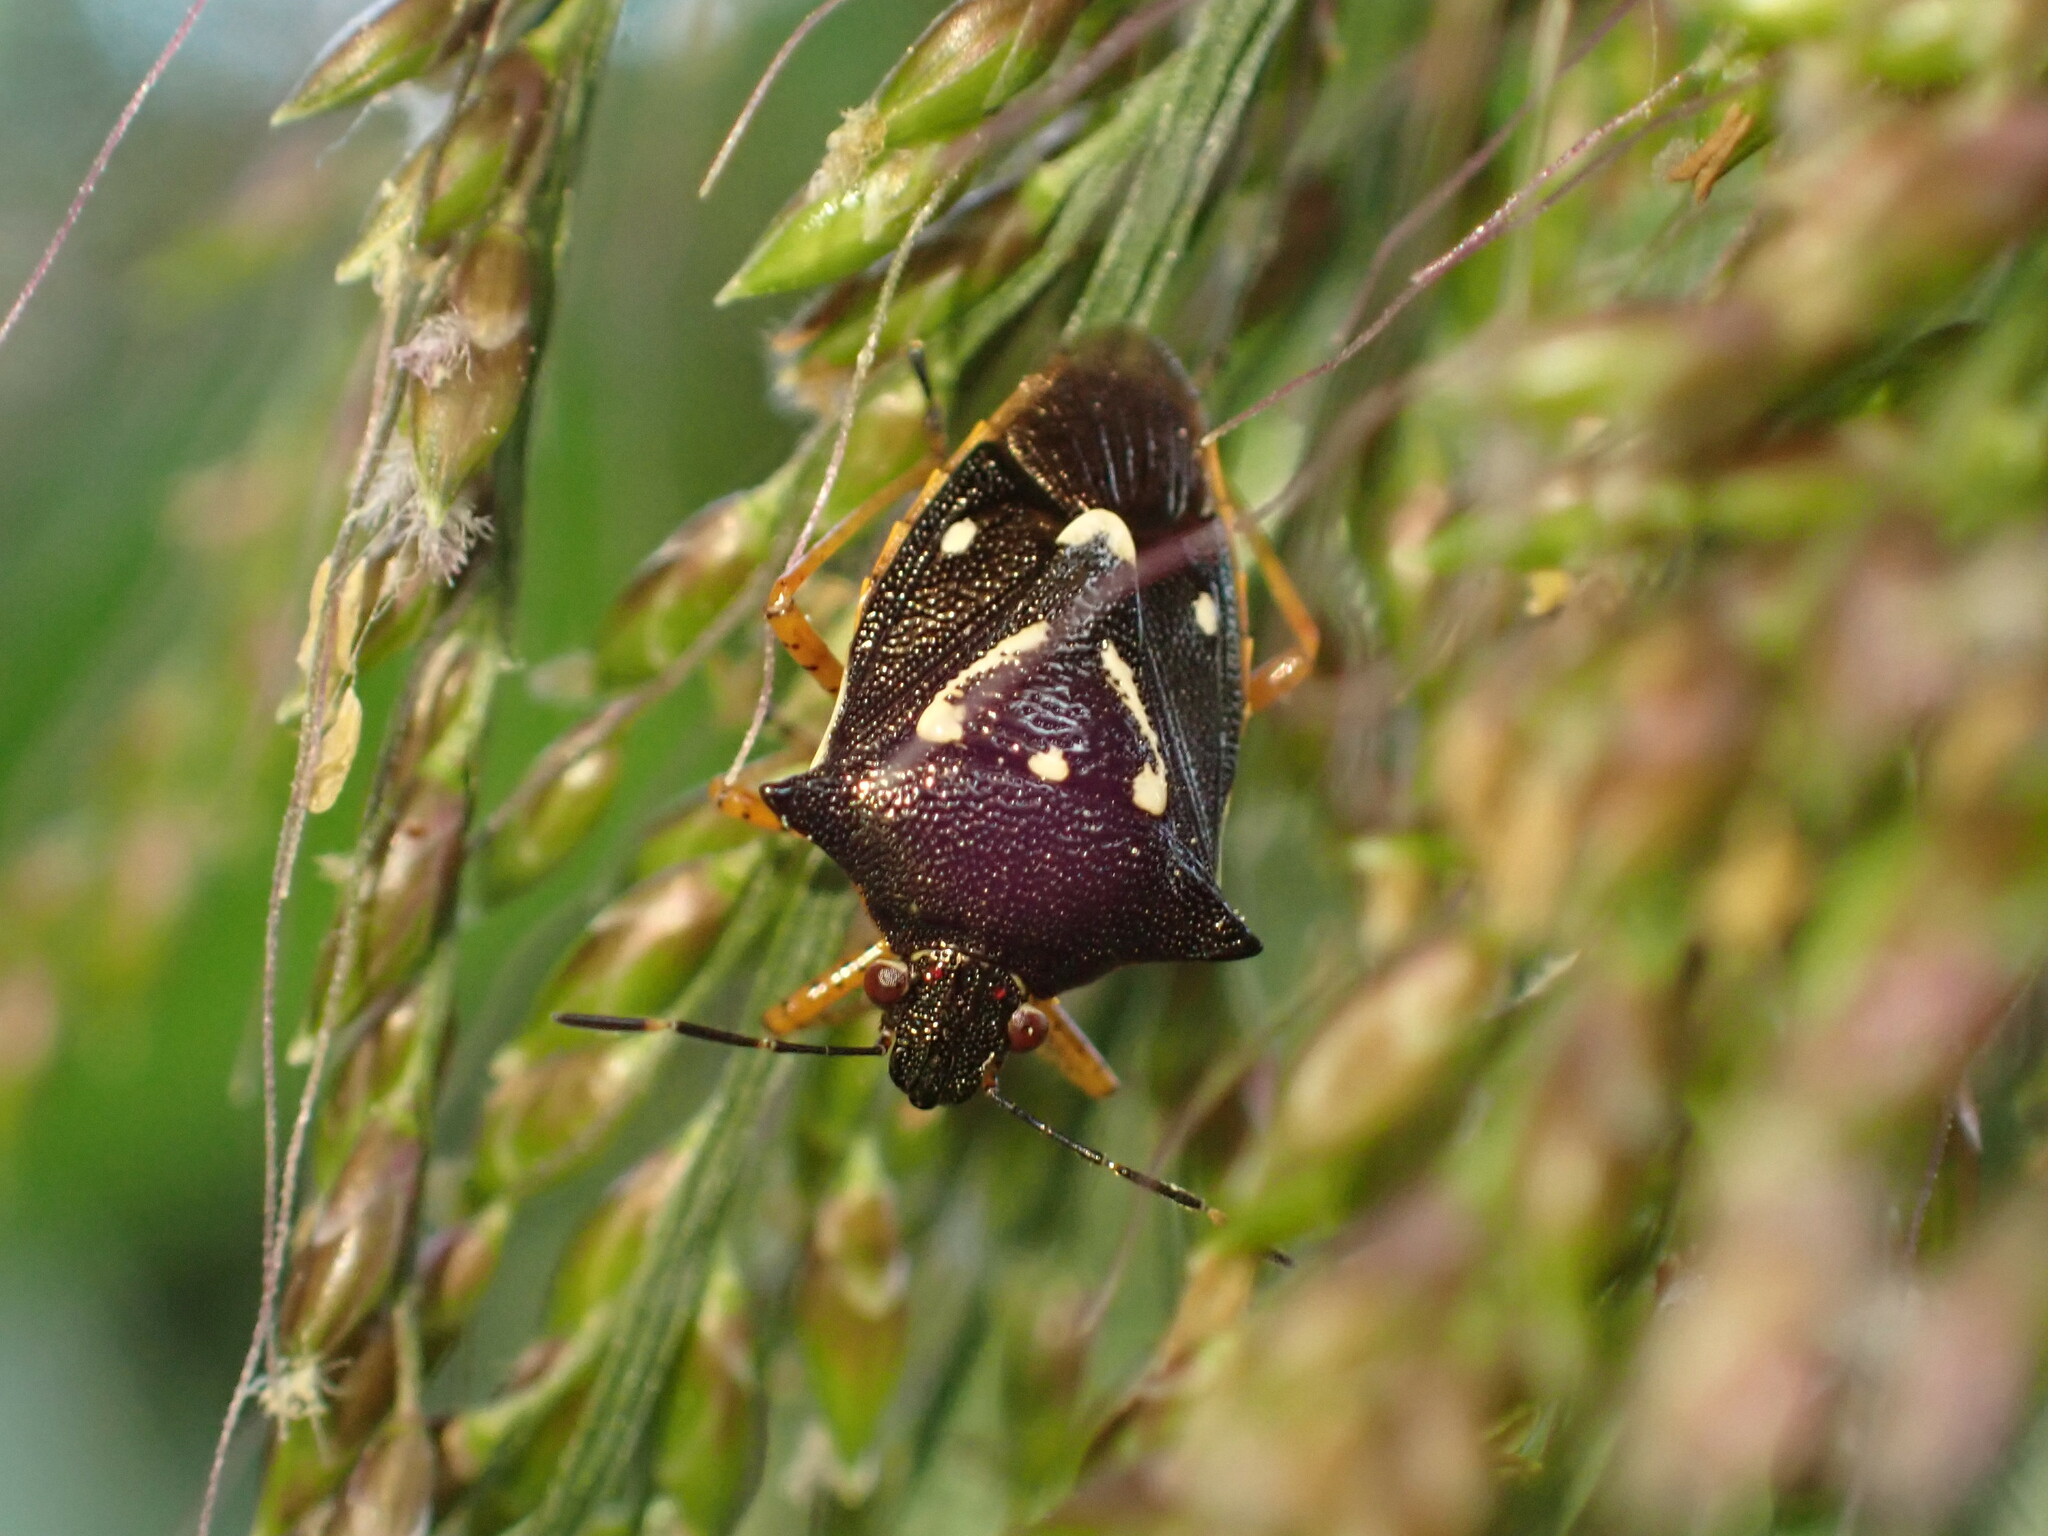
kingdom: Animalia
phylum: Arthropoda
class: Insecta
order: Hemiptera
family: Pentatomidae
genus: Mormidea
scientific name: Mormidea v-luteum
